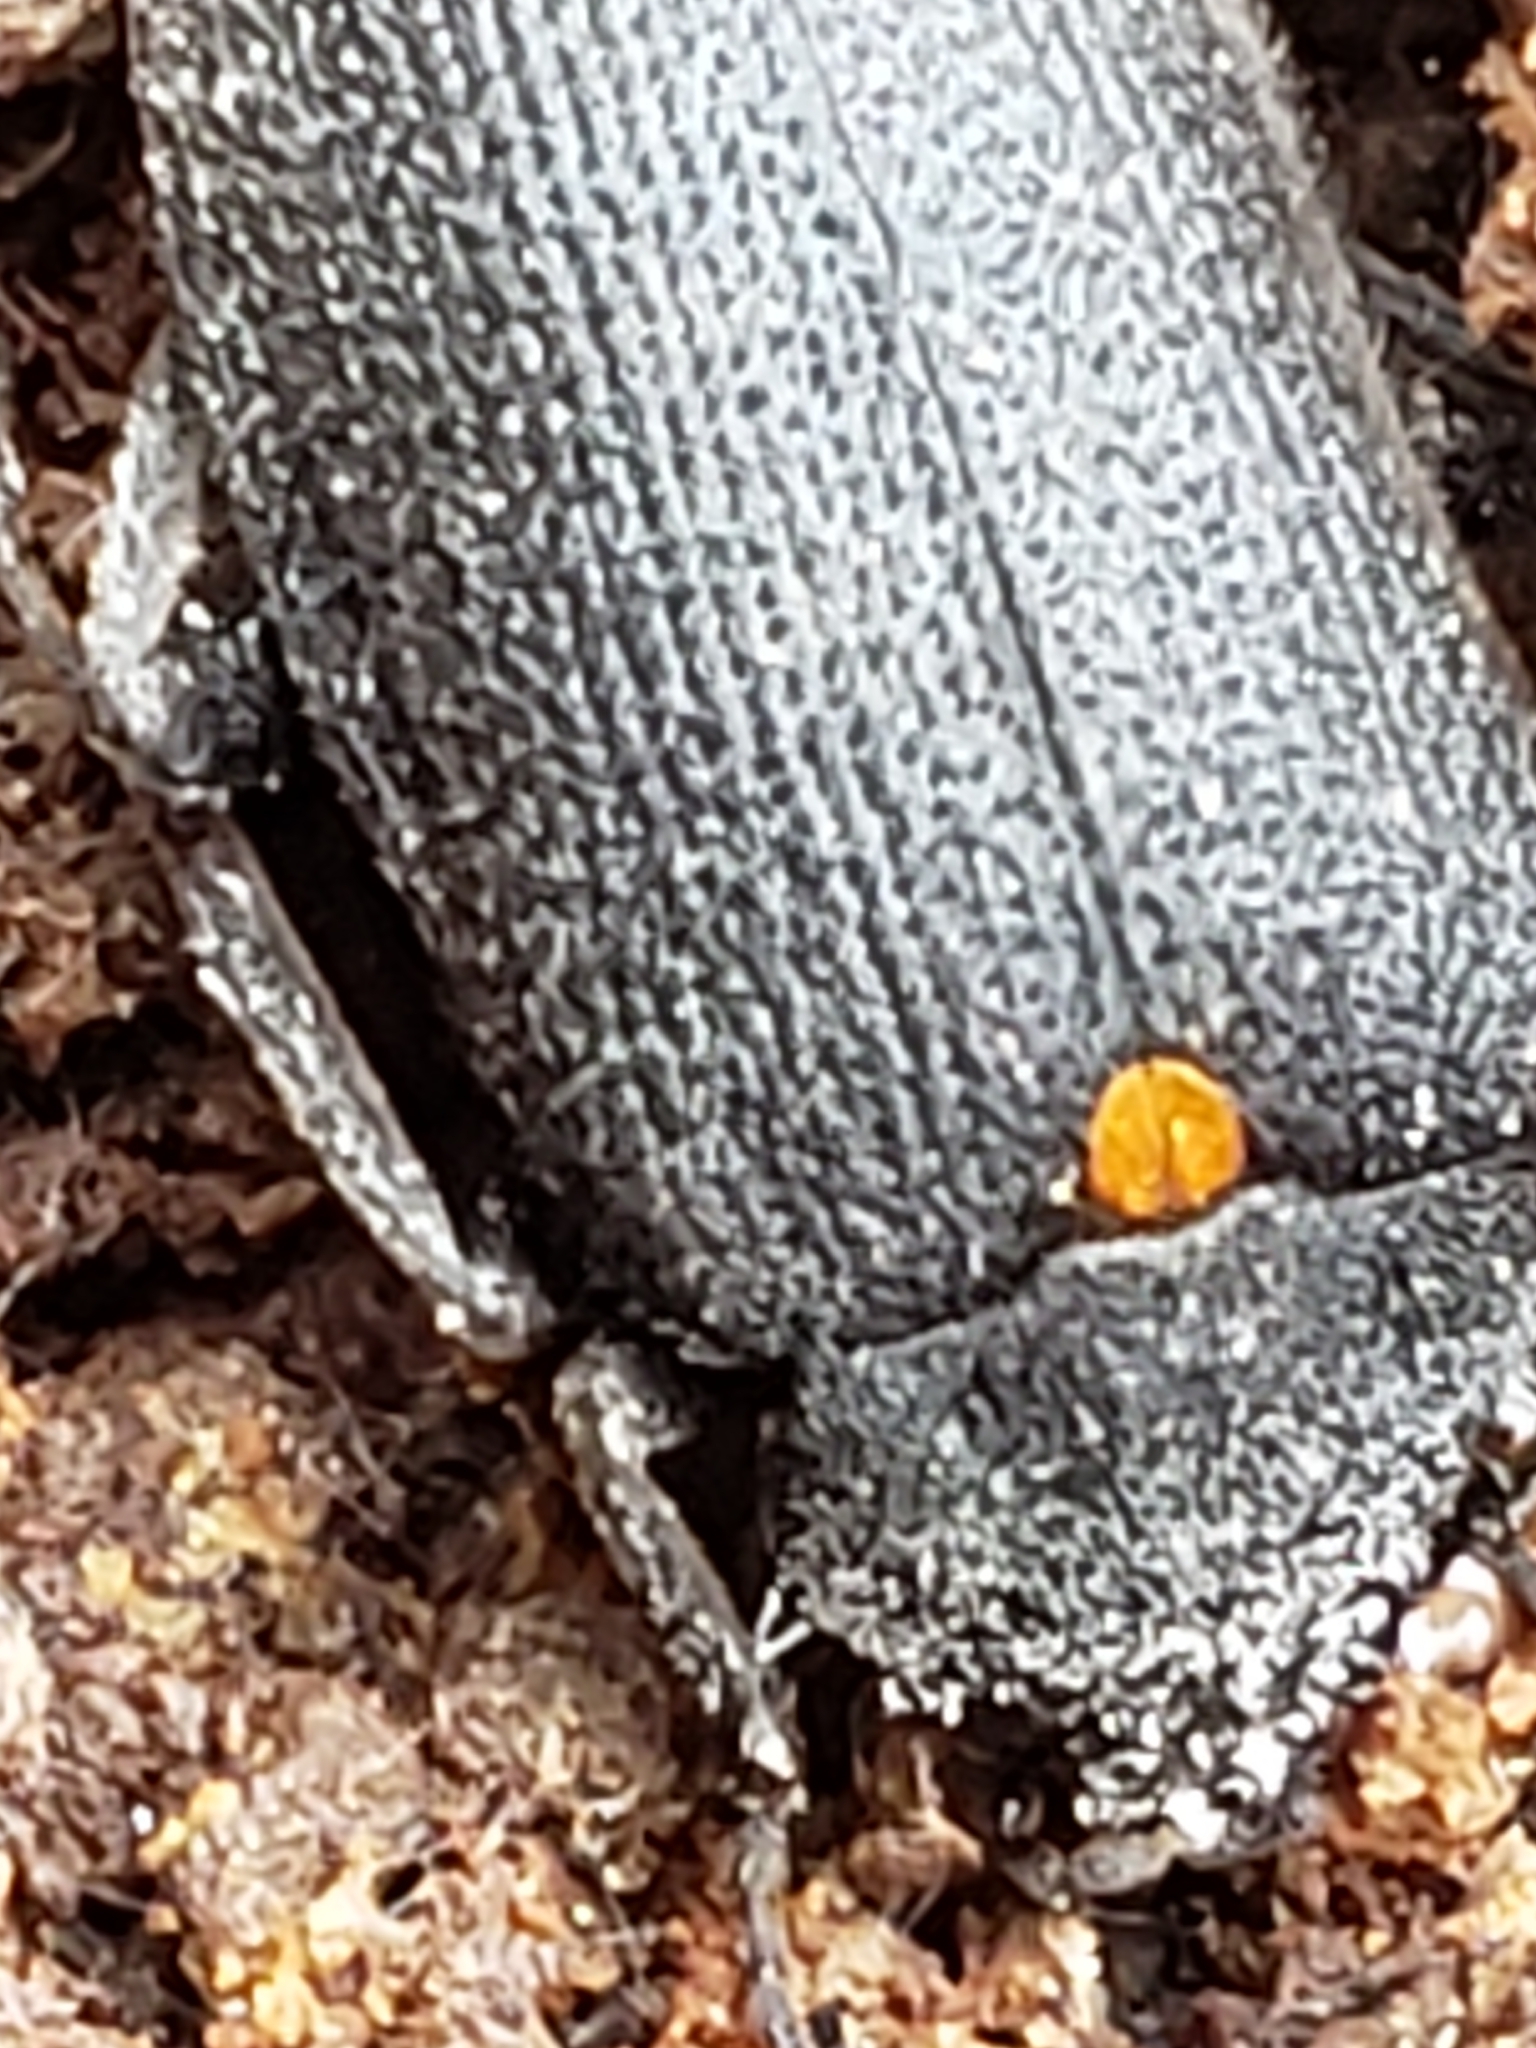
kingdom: Animalia
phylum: Arthropoda
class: Insecta
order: Coleoptera
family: Tetratomidae
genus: Penthe
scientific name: Penthe obliquata
